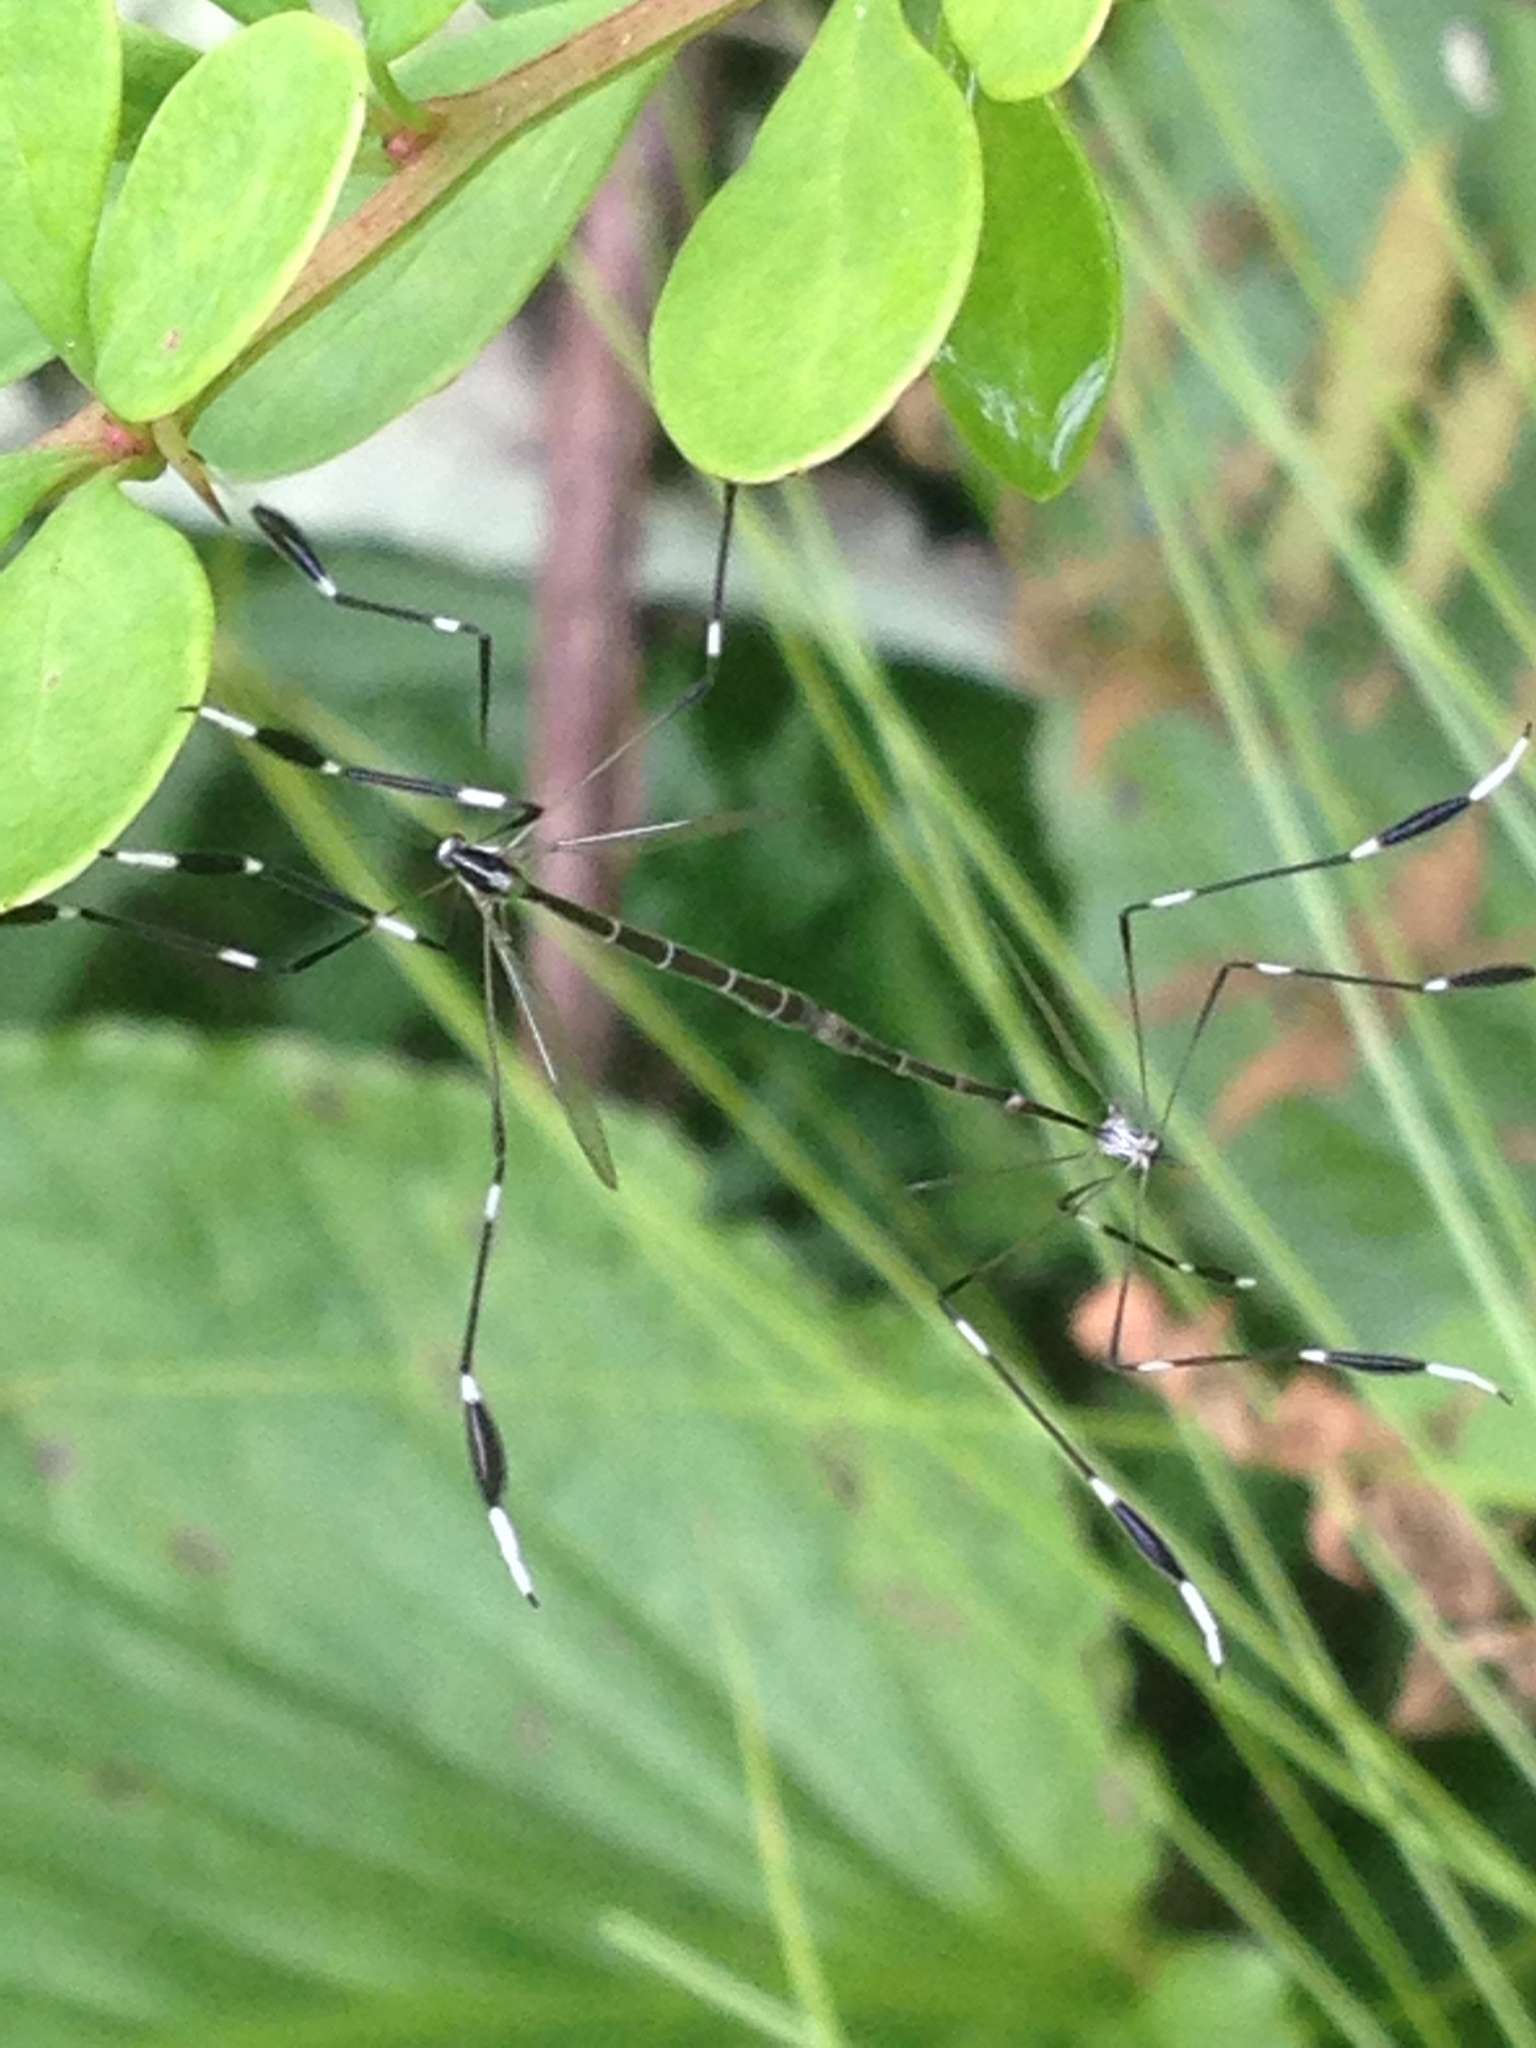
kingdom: Animalia
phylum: Arthropoda
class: Insecta
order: Diptera
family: Ptychopteridae
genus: Bittacomorpha
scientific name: Bittacomorpha clavipes
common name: Eastern phantom crane fly
